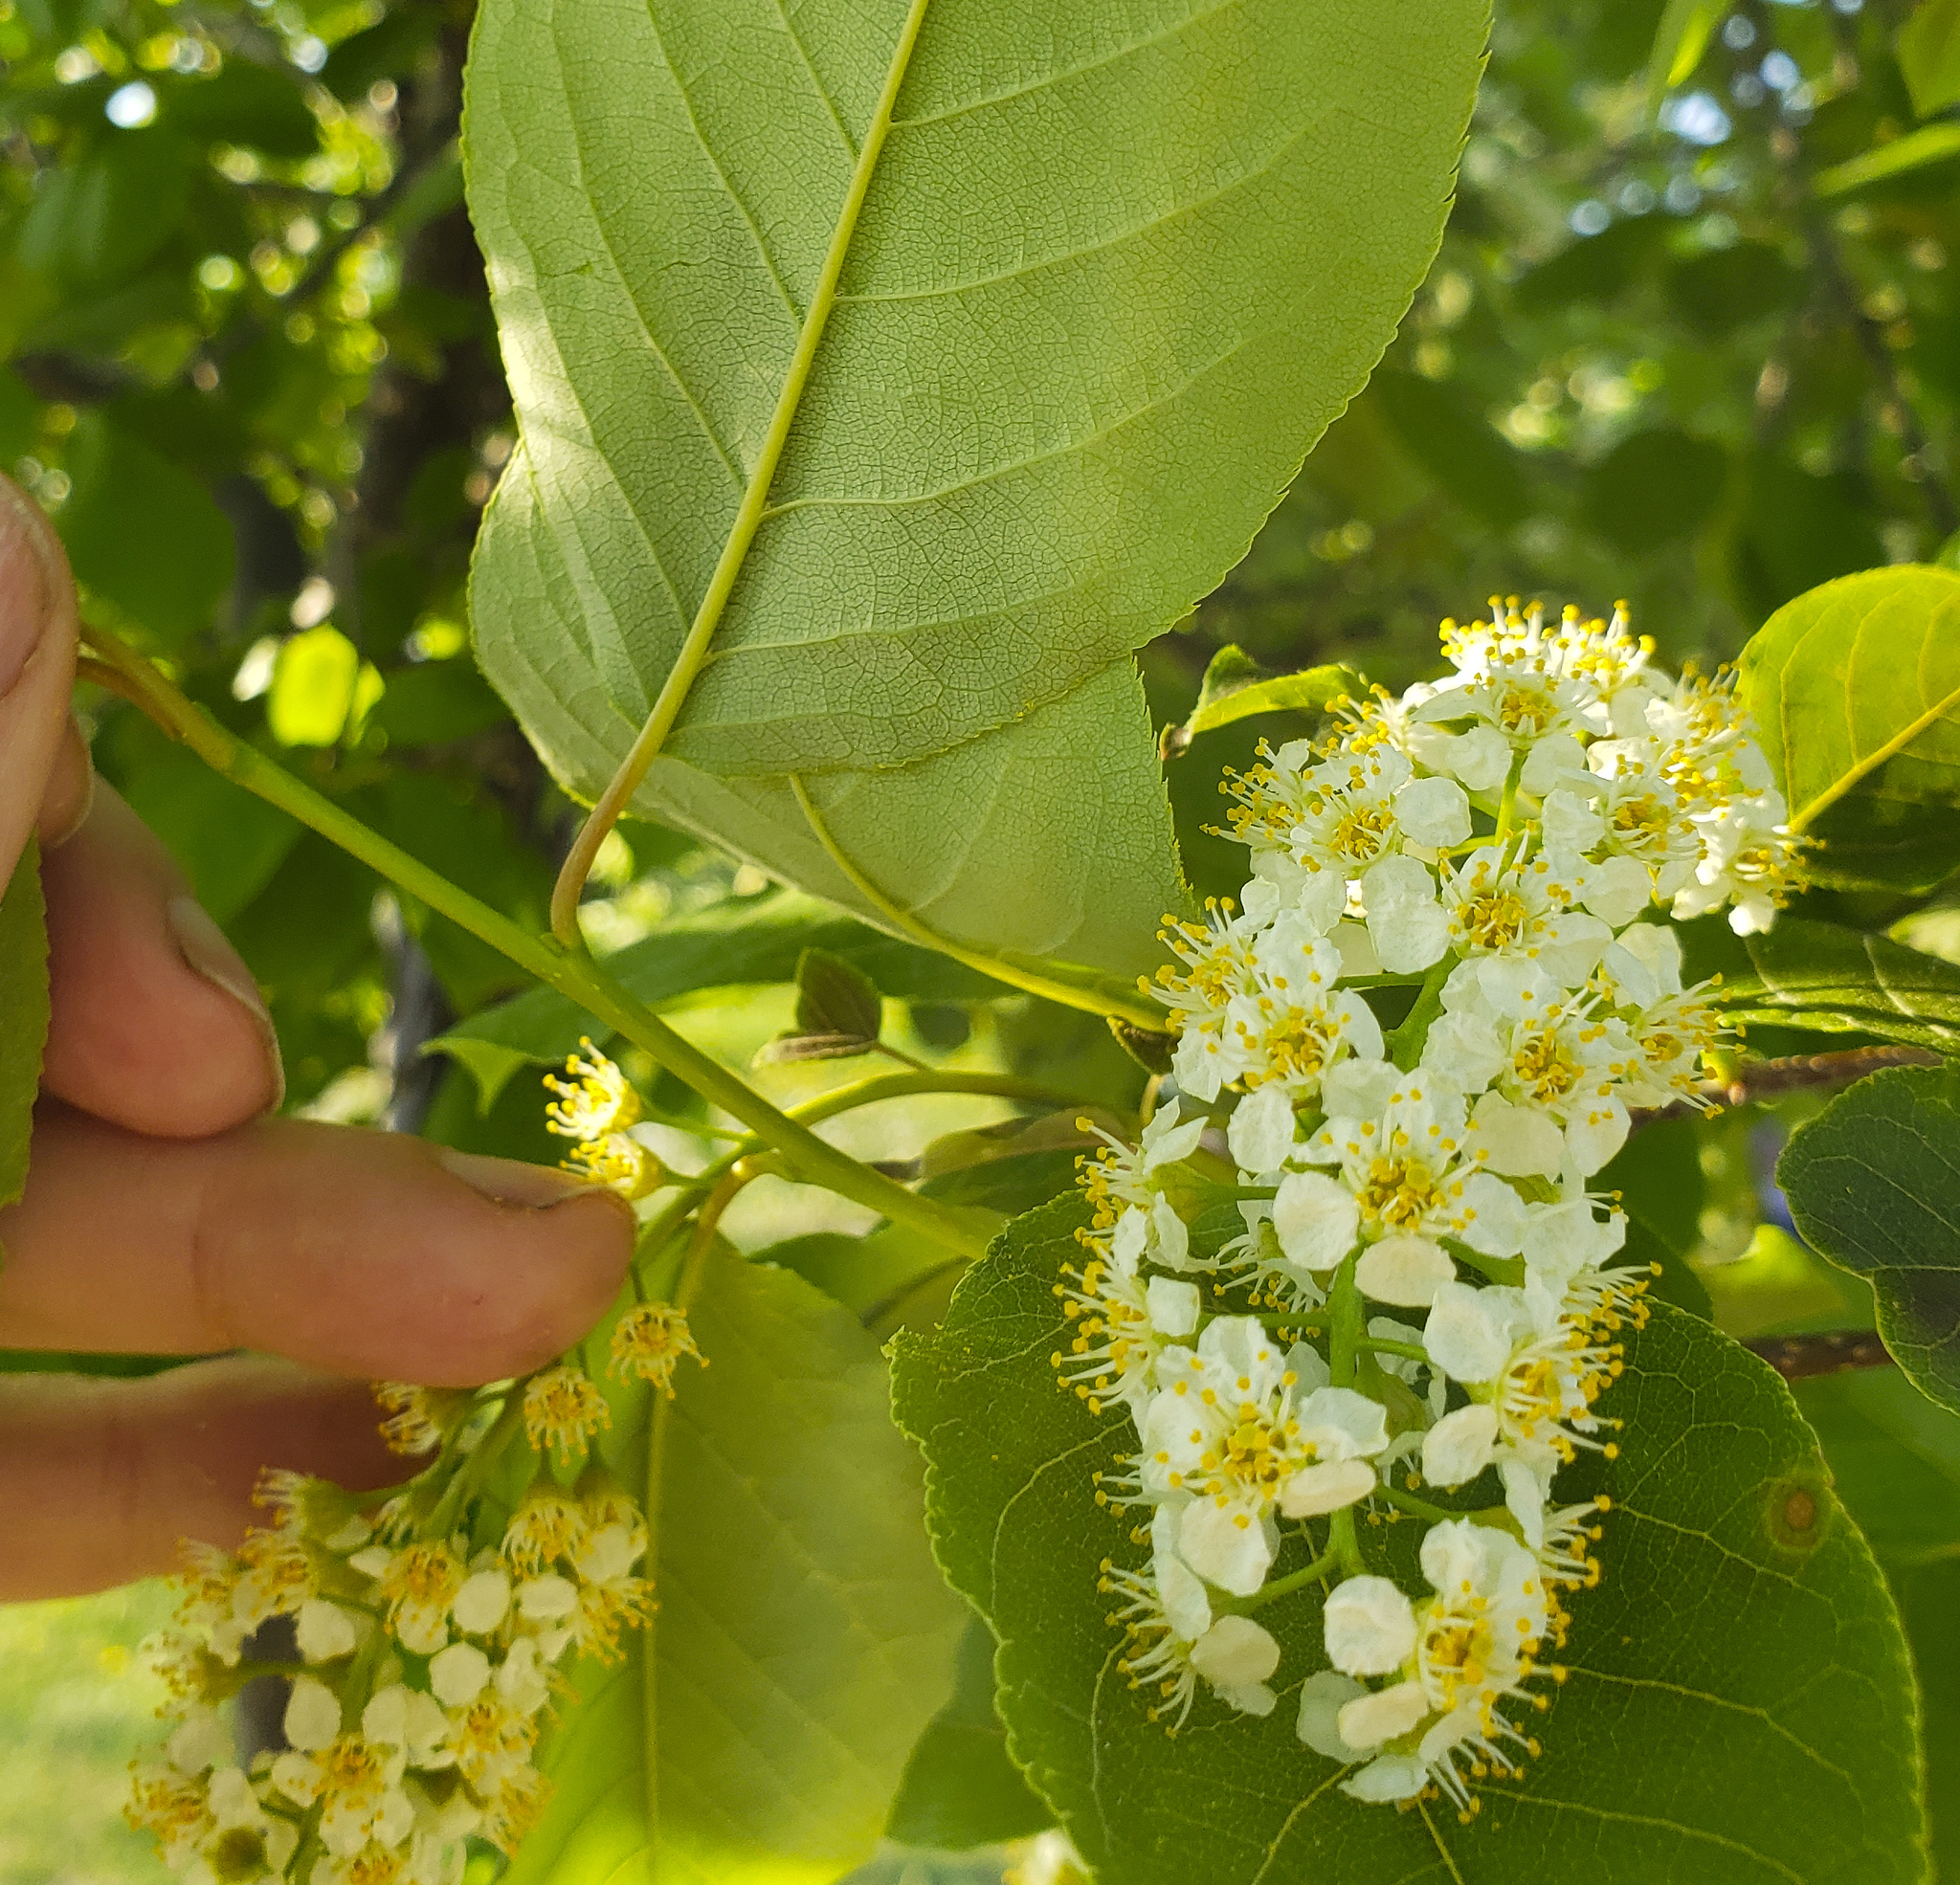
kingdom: Plantae
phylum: Tracheophyta
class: Magnoliopsida
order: Rosales
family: Rosaceae
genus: Prunus
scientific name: Prunus virginiana
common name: Chokecherry
